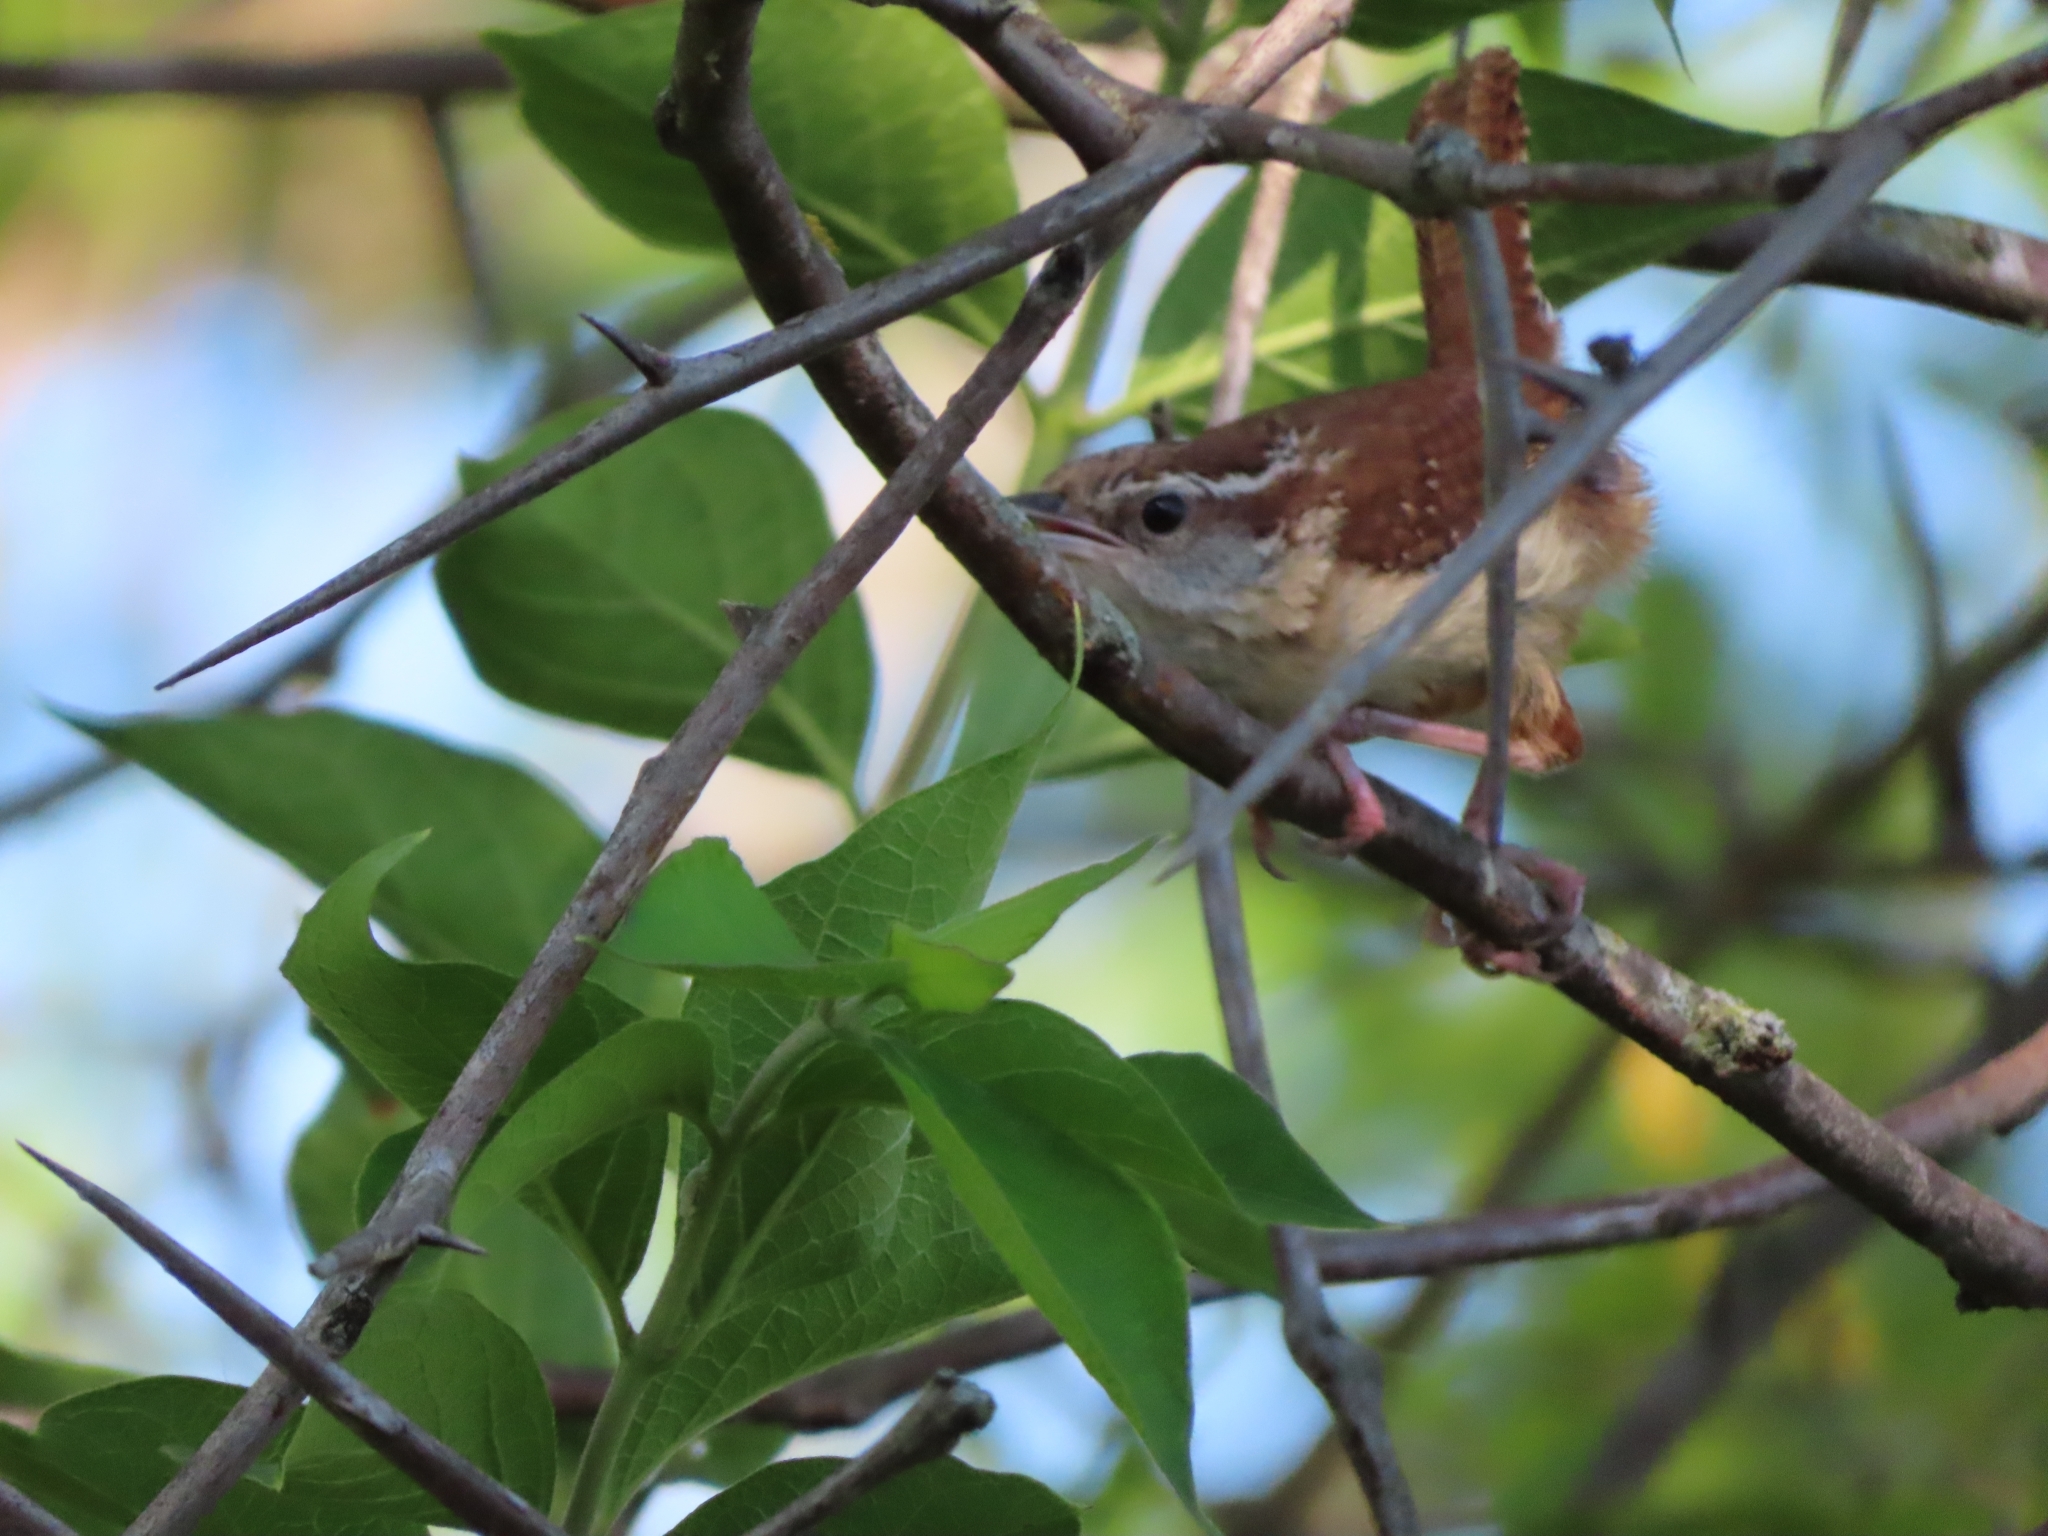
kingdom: Animalia
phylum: Chordata
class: Aves
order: Passeriformes
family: Troglodytidae
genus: Thryothorus
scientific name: Thryothorus ludovicianus
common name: Carolina wren
